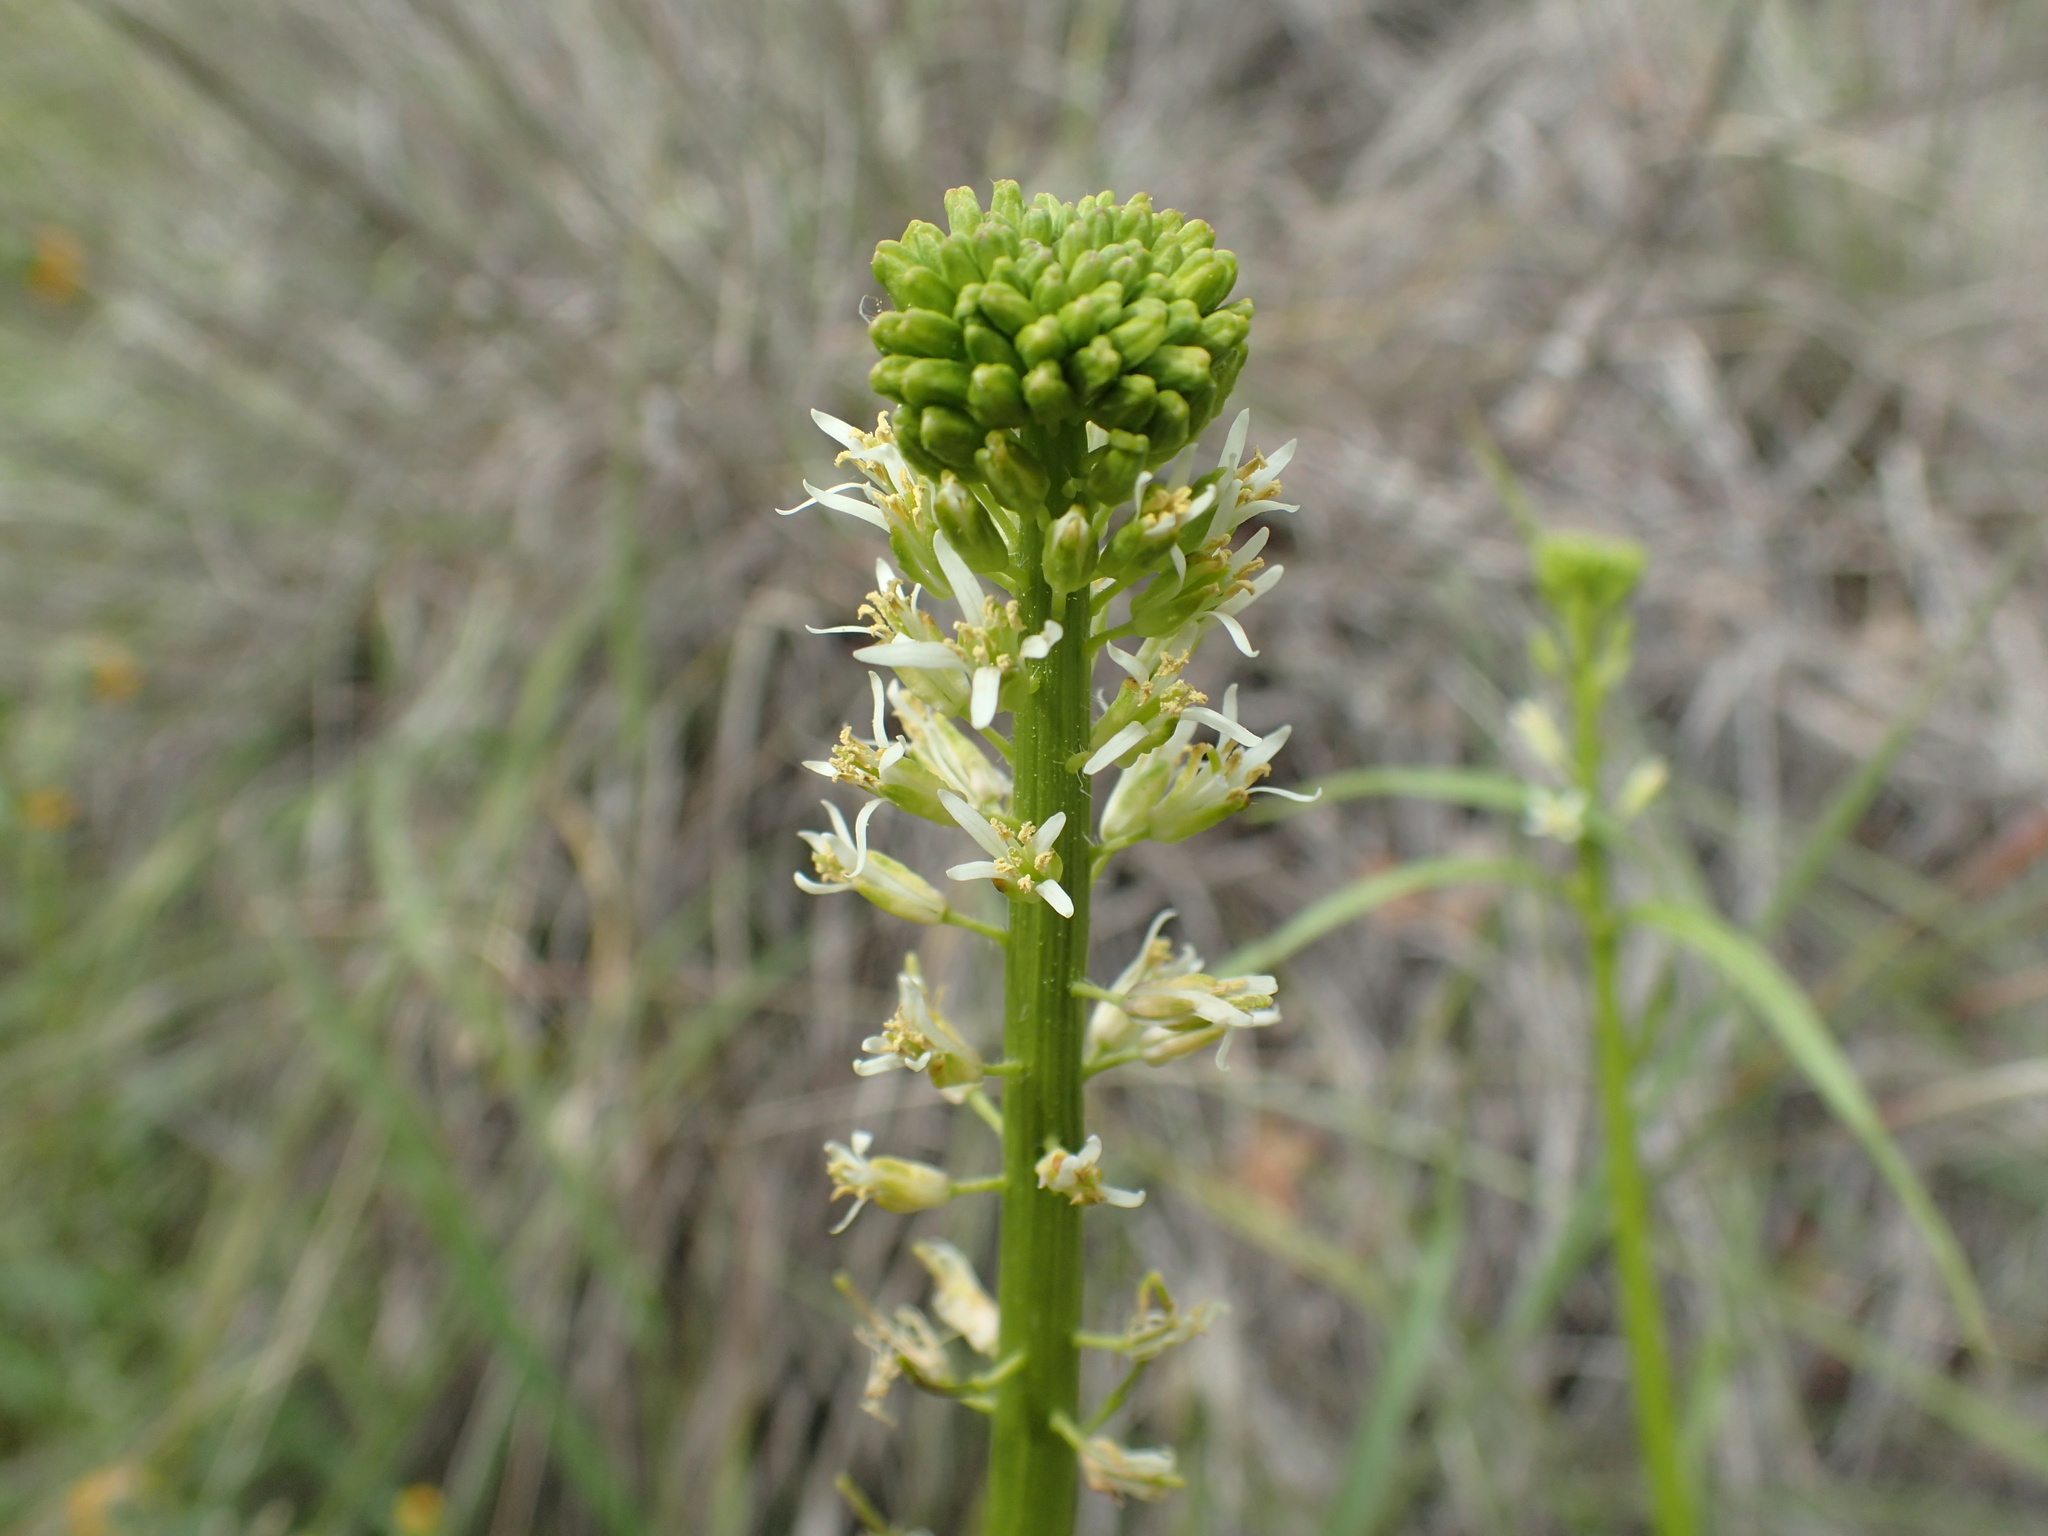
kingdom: Plantae
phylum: Tracheophyta
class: Magnoliopsida
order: Brassicales
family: Brassicaceae
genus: Streptanthus
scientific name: Streptanthus lasiophyllus
